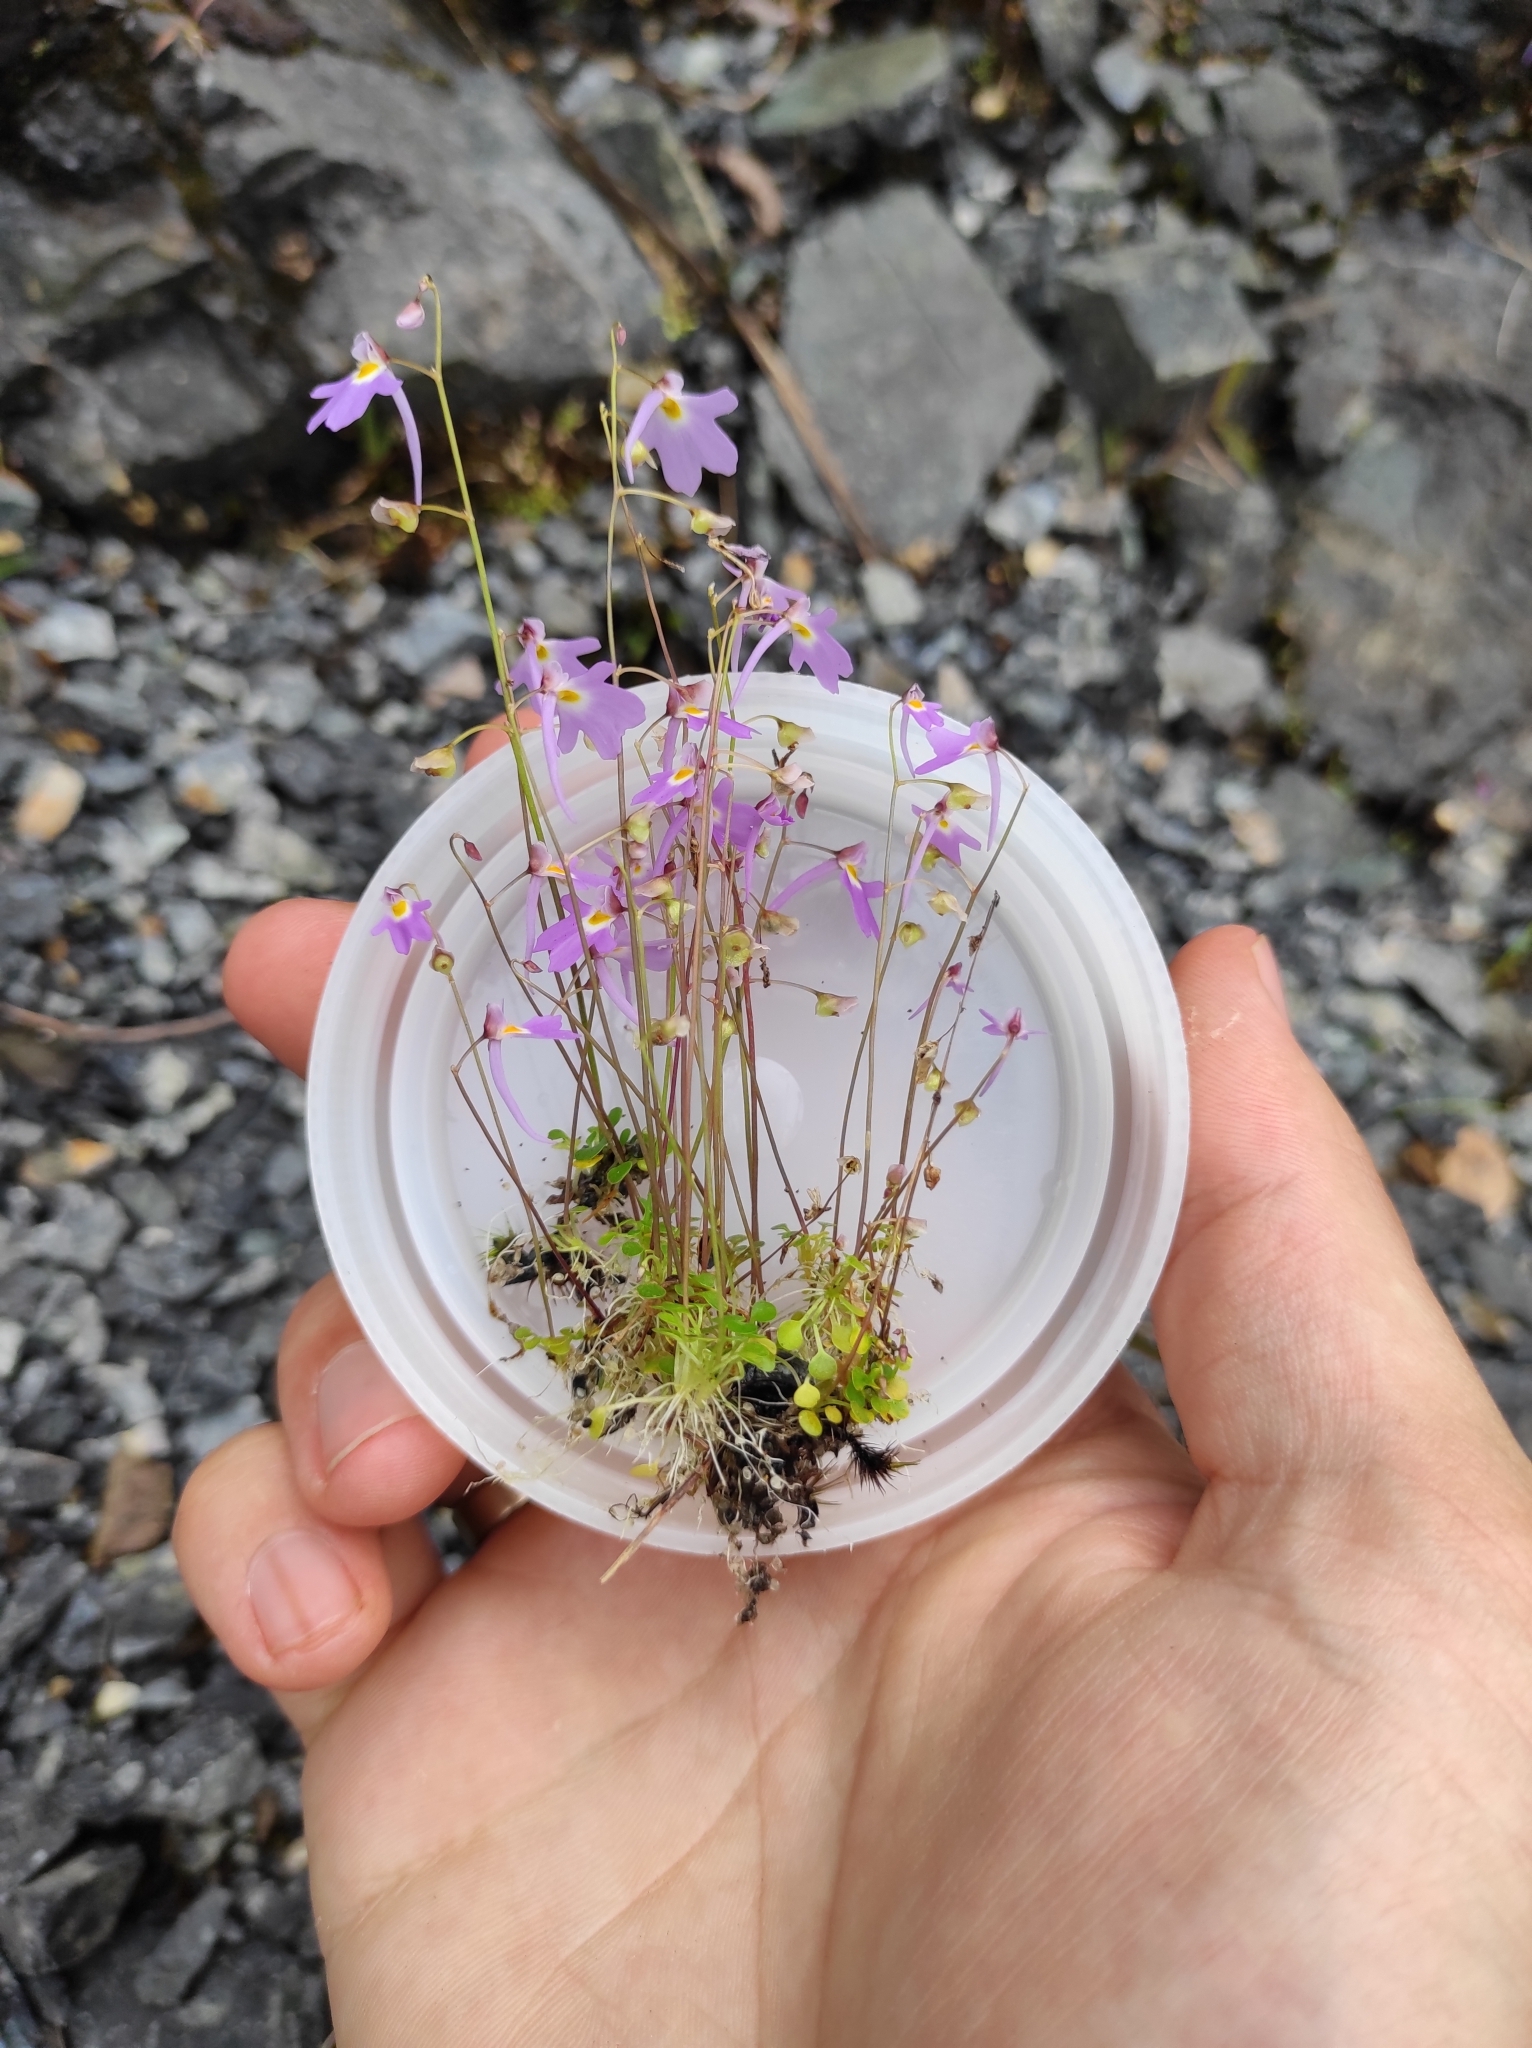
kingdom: Plantae
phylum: Tracheophyta
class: Magnoliopsida
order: Lamiales
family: Lentibulariaceae
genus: Utricularia
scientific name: Utricularia striatula
